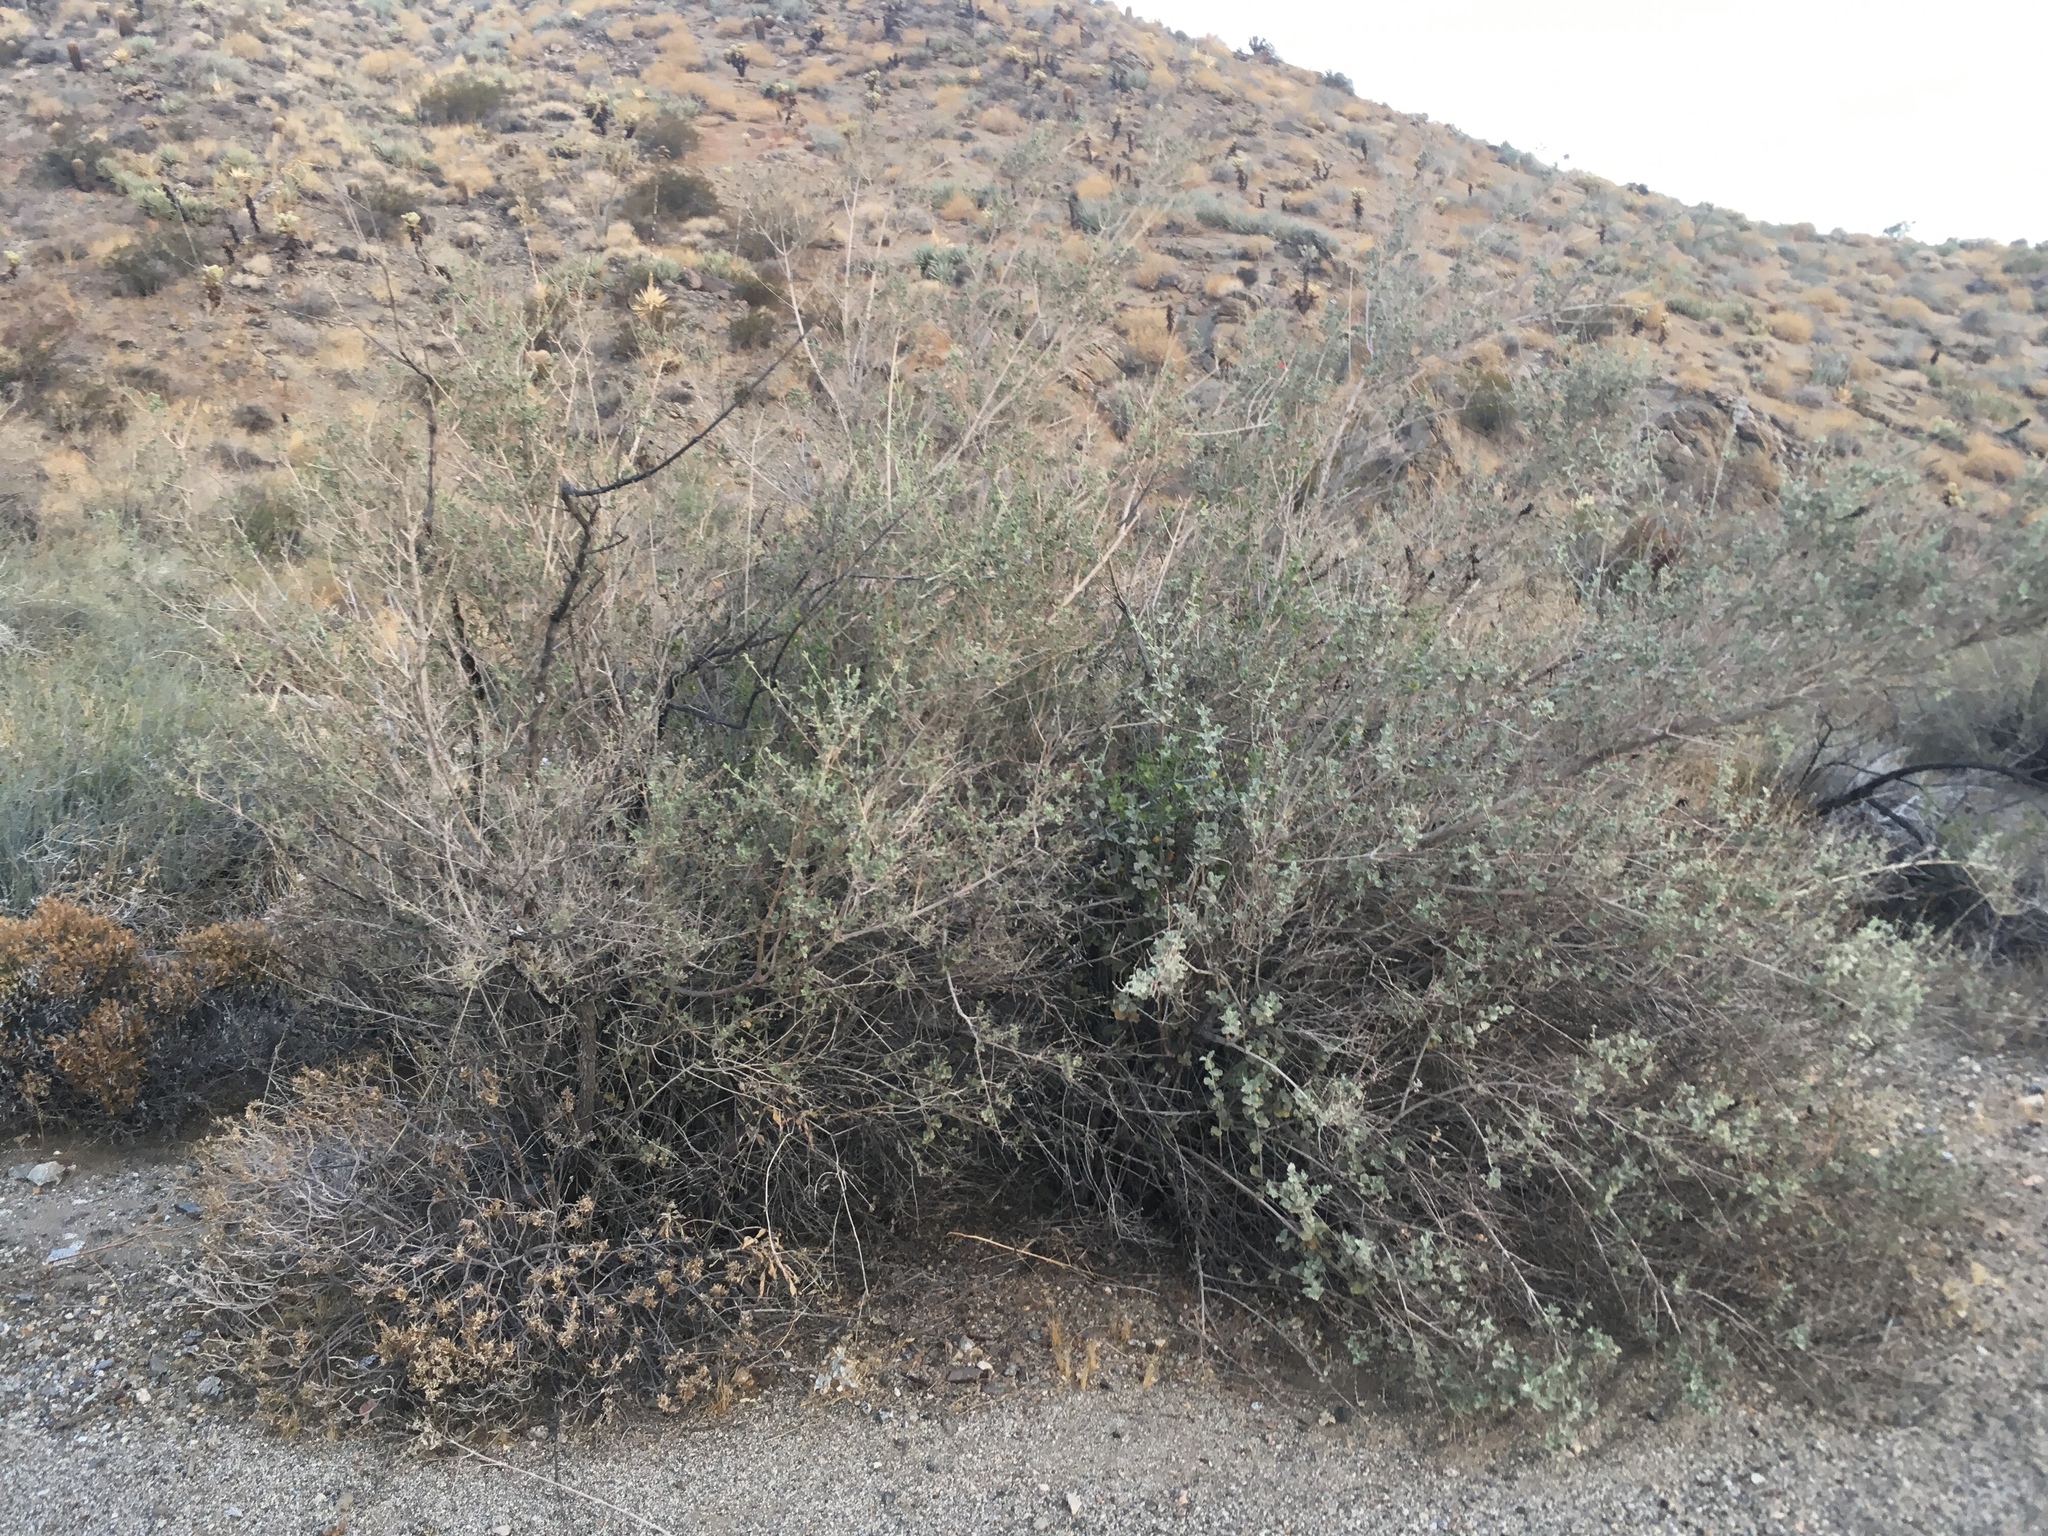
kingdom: Plantae
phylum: Tracheophyta
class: Magnoliopsida
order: Lamiales
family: Lamiaceae
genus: Condea
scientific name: Condea emoryi
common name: Chia
